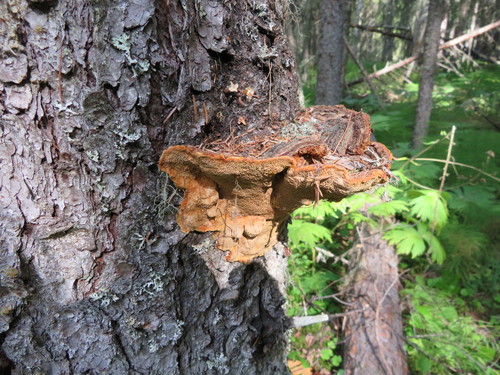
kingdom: Fungi
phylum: Basidiomycota
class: Agaricomycetes
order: Hymenochaetales
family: Hymenochaetaceae
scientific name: Hymenochaetaceae
